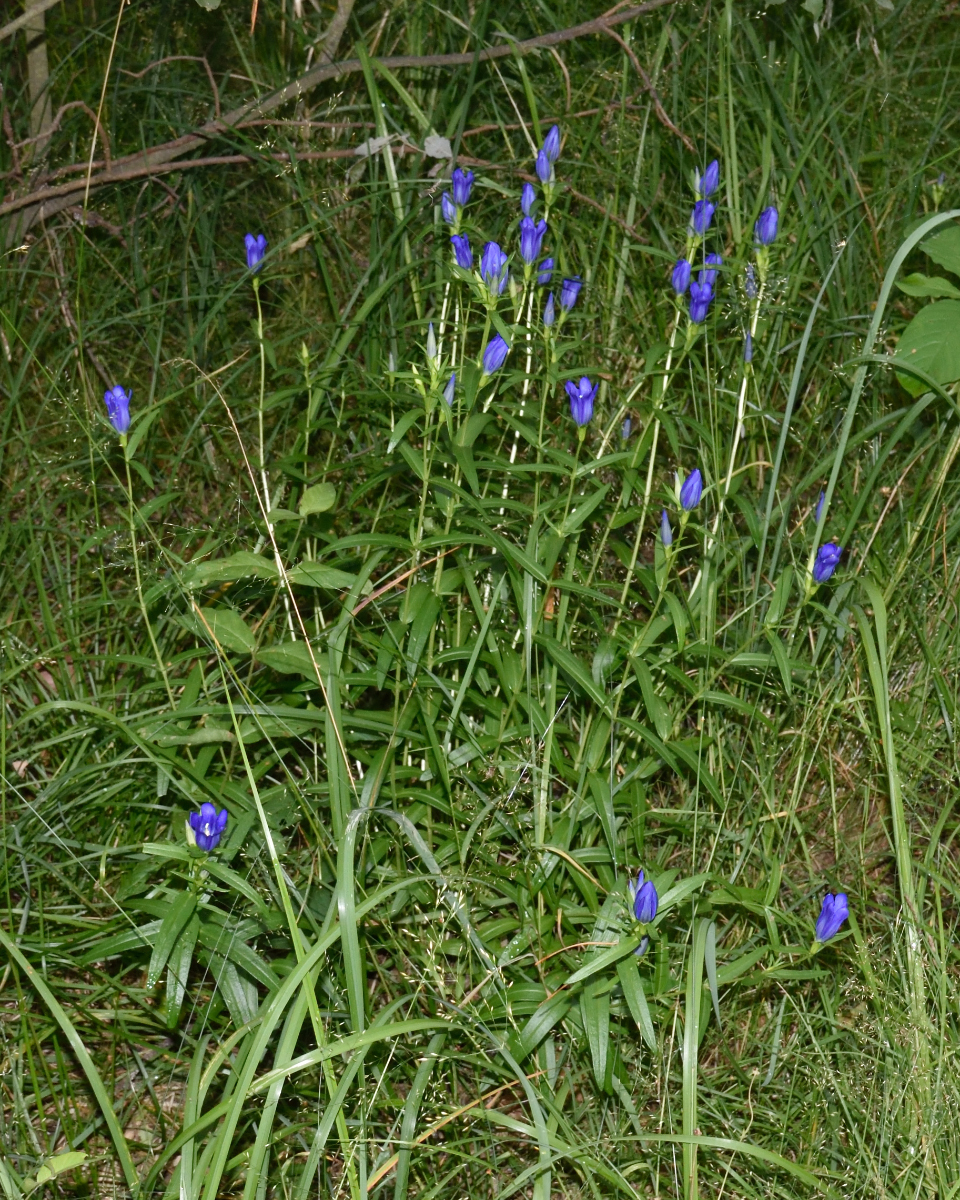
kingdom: Plantae
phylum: Tracheophyta
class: Magnoliopsida
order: Gentianales
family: Gentianaceae
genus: Gentiana
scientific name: Gentiana pneumonanthe
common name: Marsh gentian
